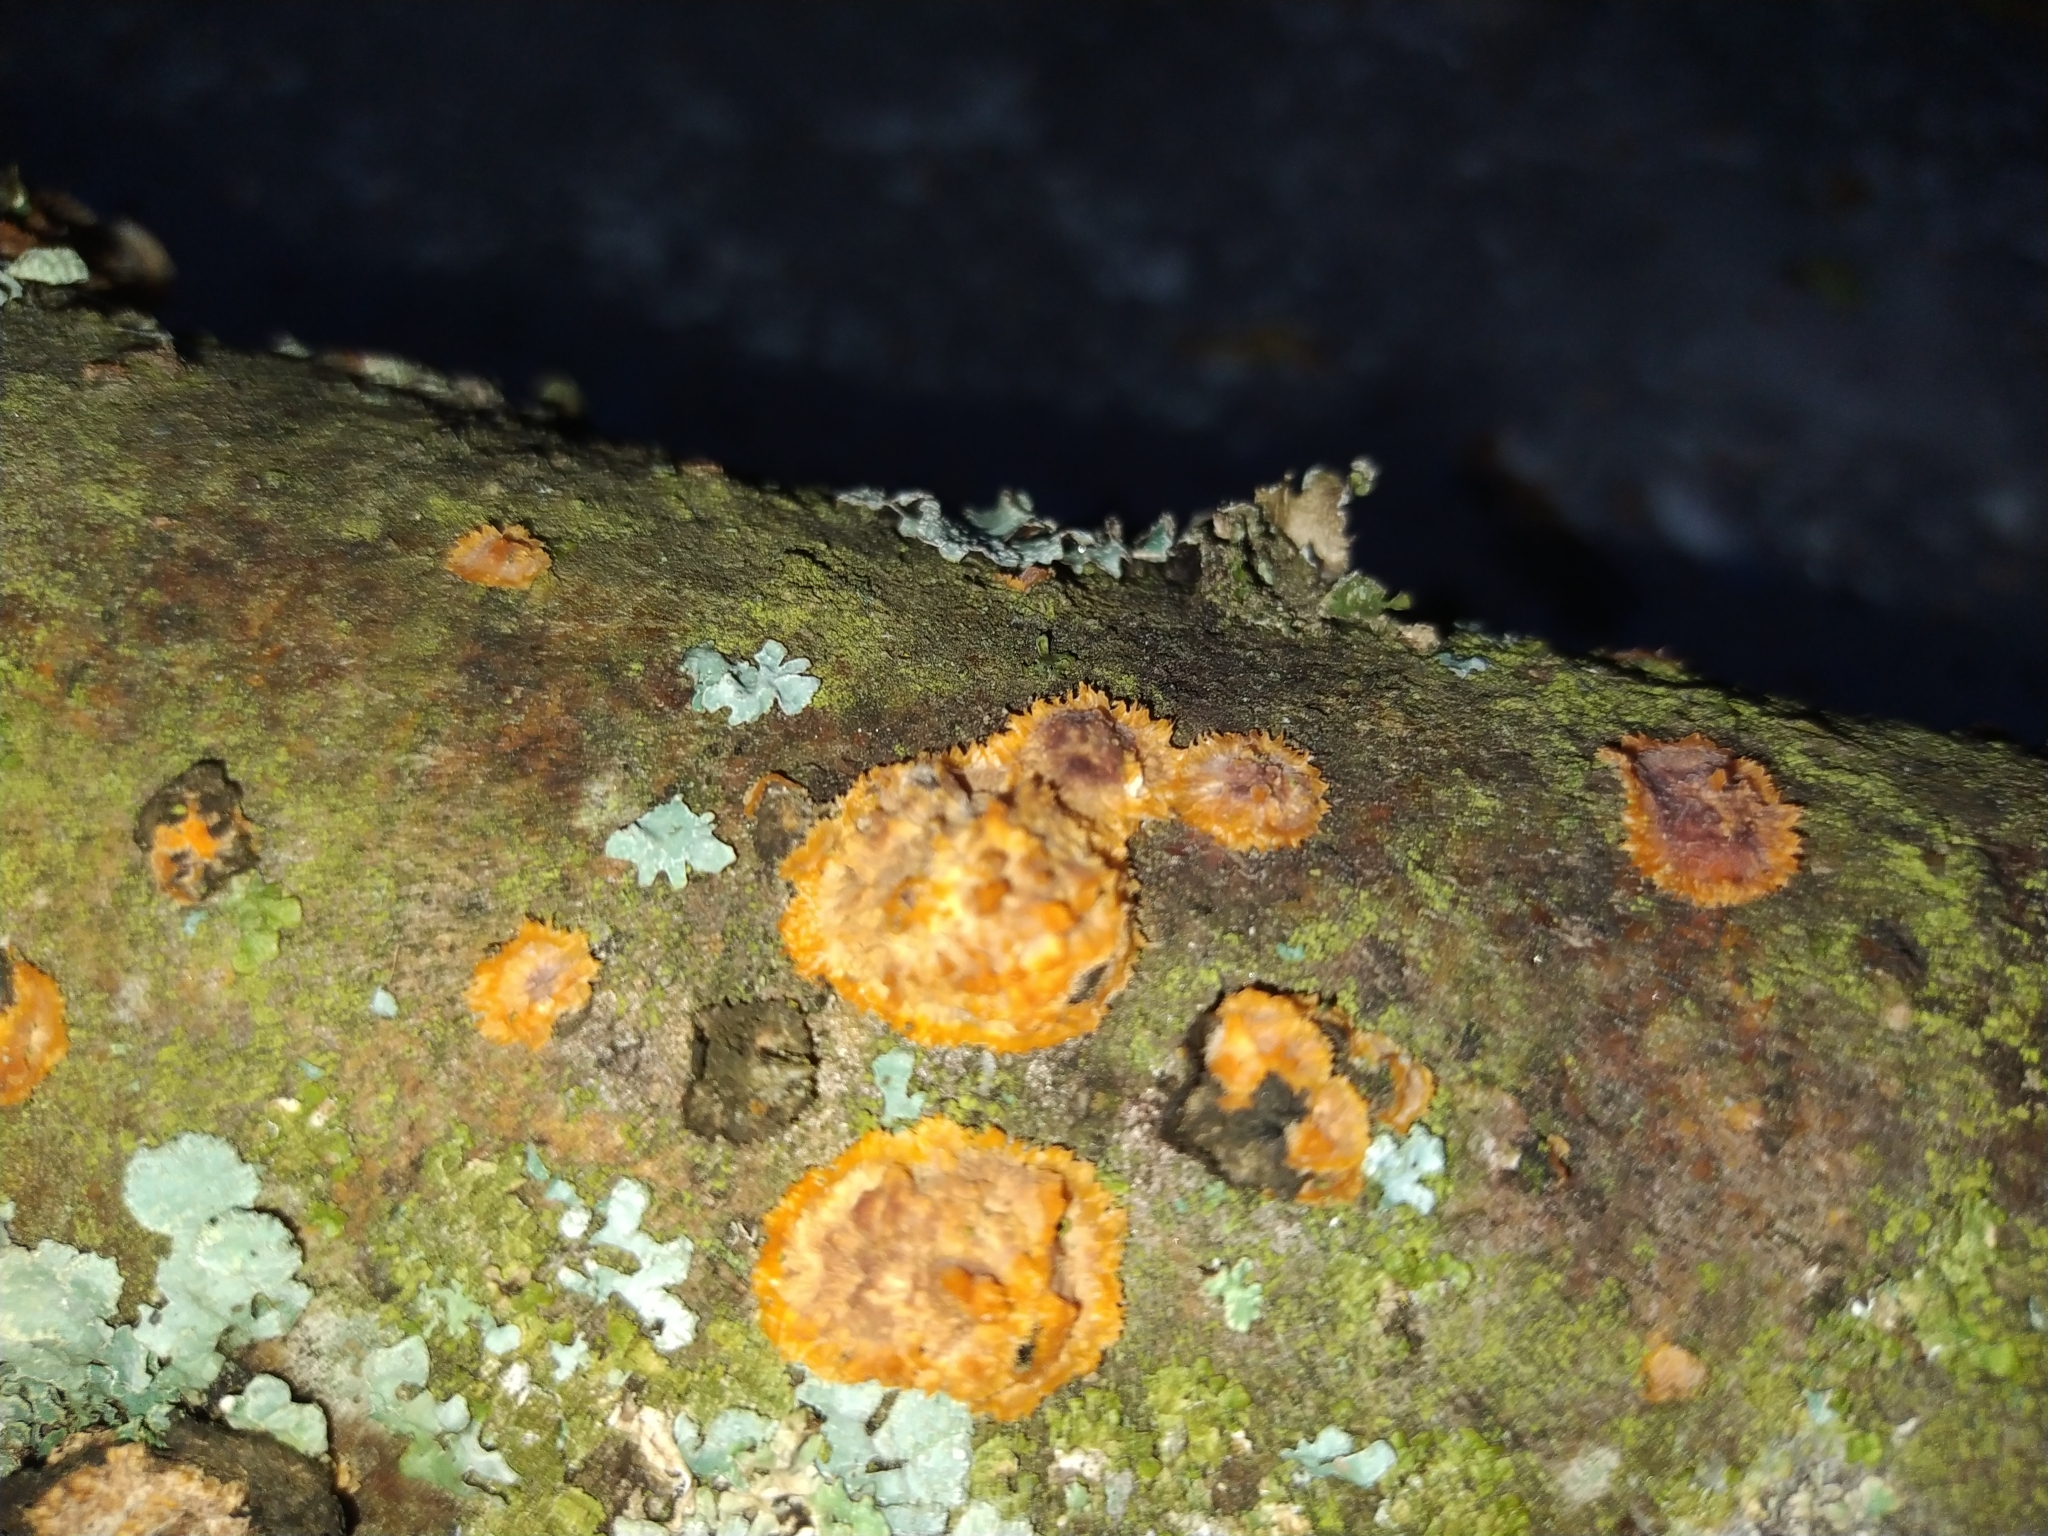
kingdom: Fungi
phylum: Basidiomycota
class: Agaricomycetes
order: Polyporales
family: Meruliaceae
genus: Phlebia
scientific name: Phlebia radiata
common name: Wrinkled crust
